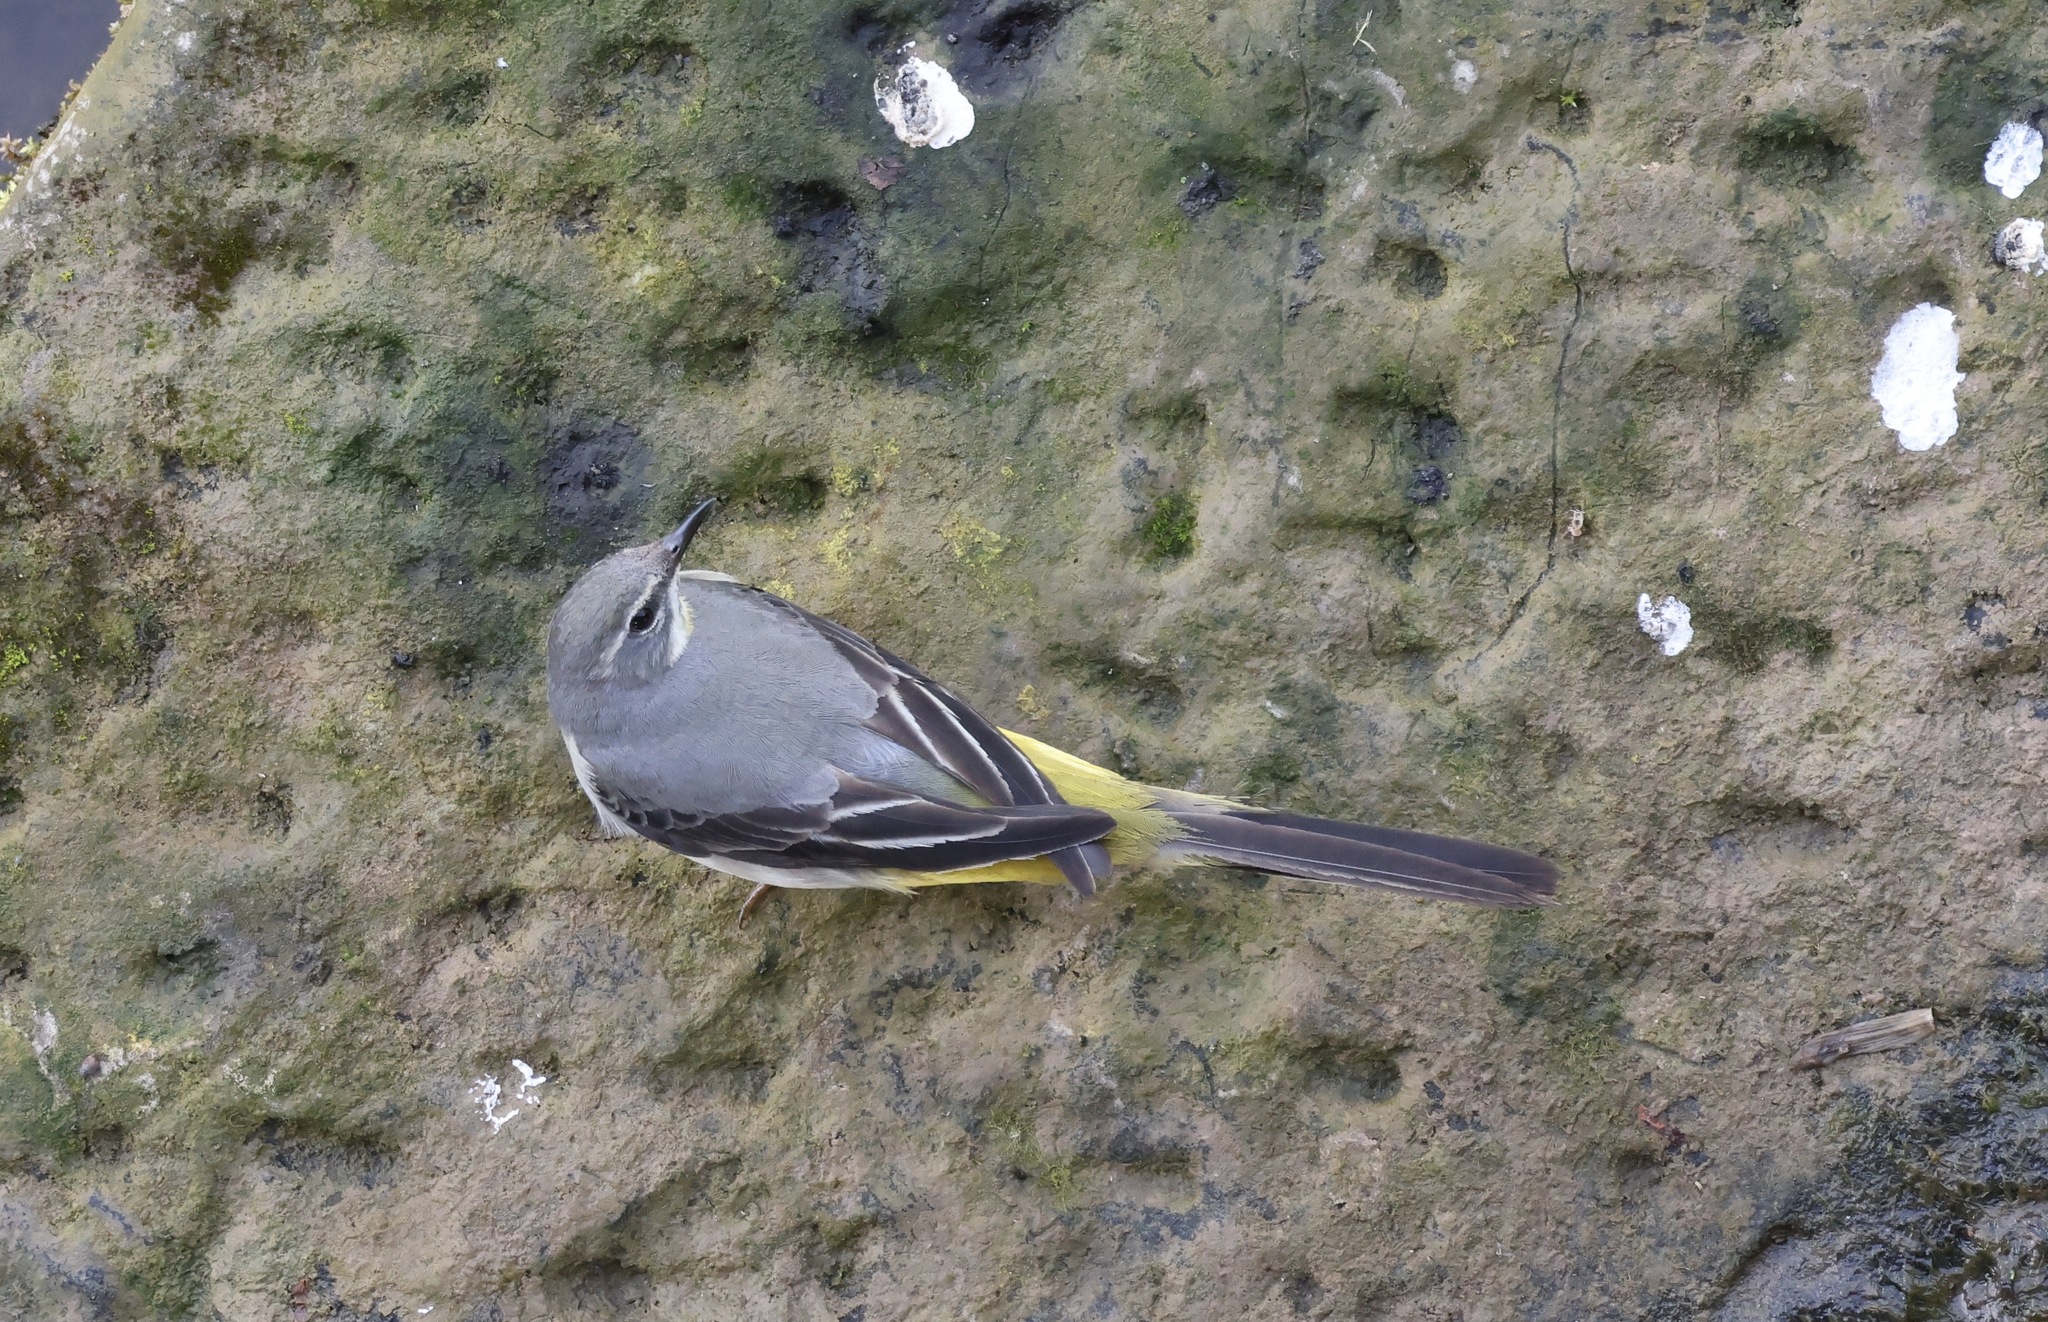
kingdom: Animalia
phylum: Chordata
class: Aves
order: Passeriformes
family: Motacillidae
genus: Motacilla
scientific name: Motacilla cinerea
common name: Grey wagtail
